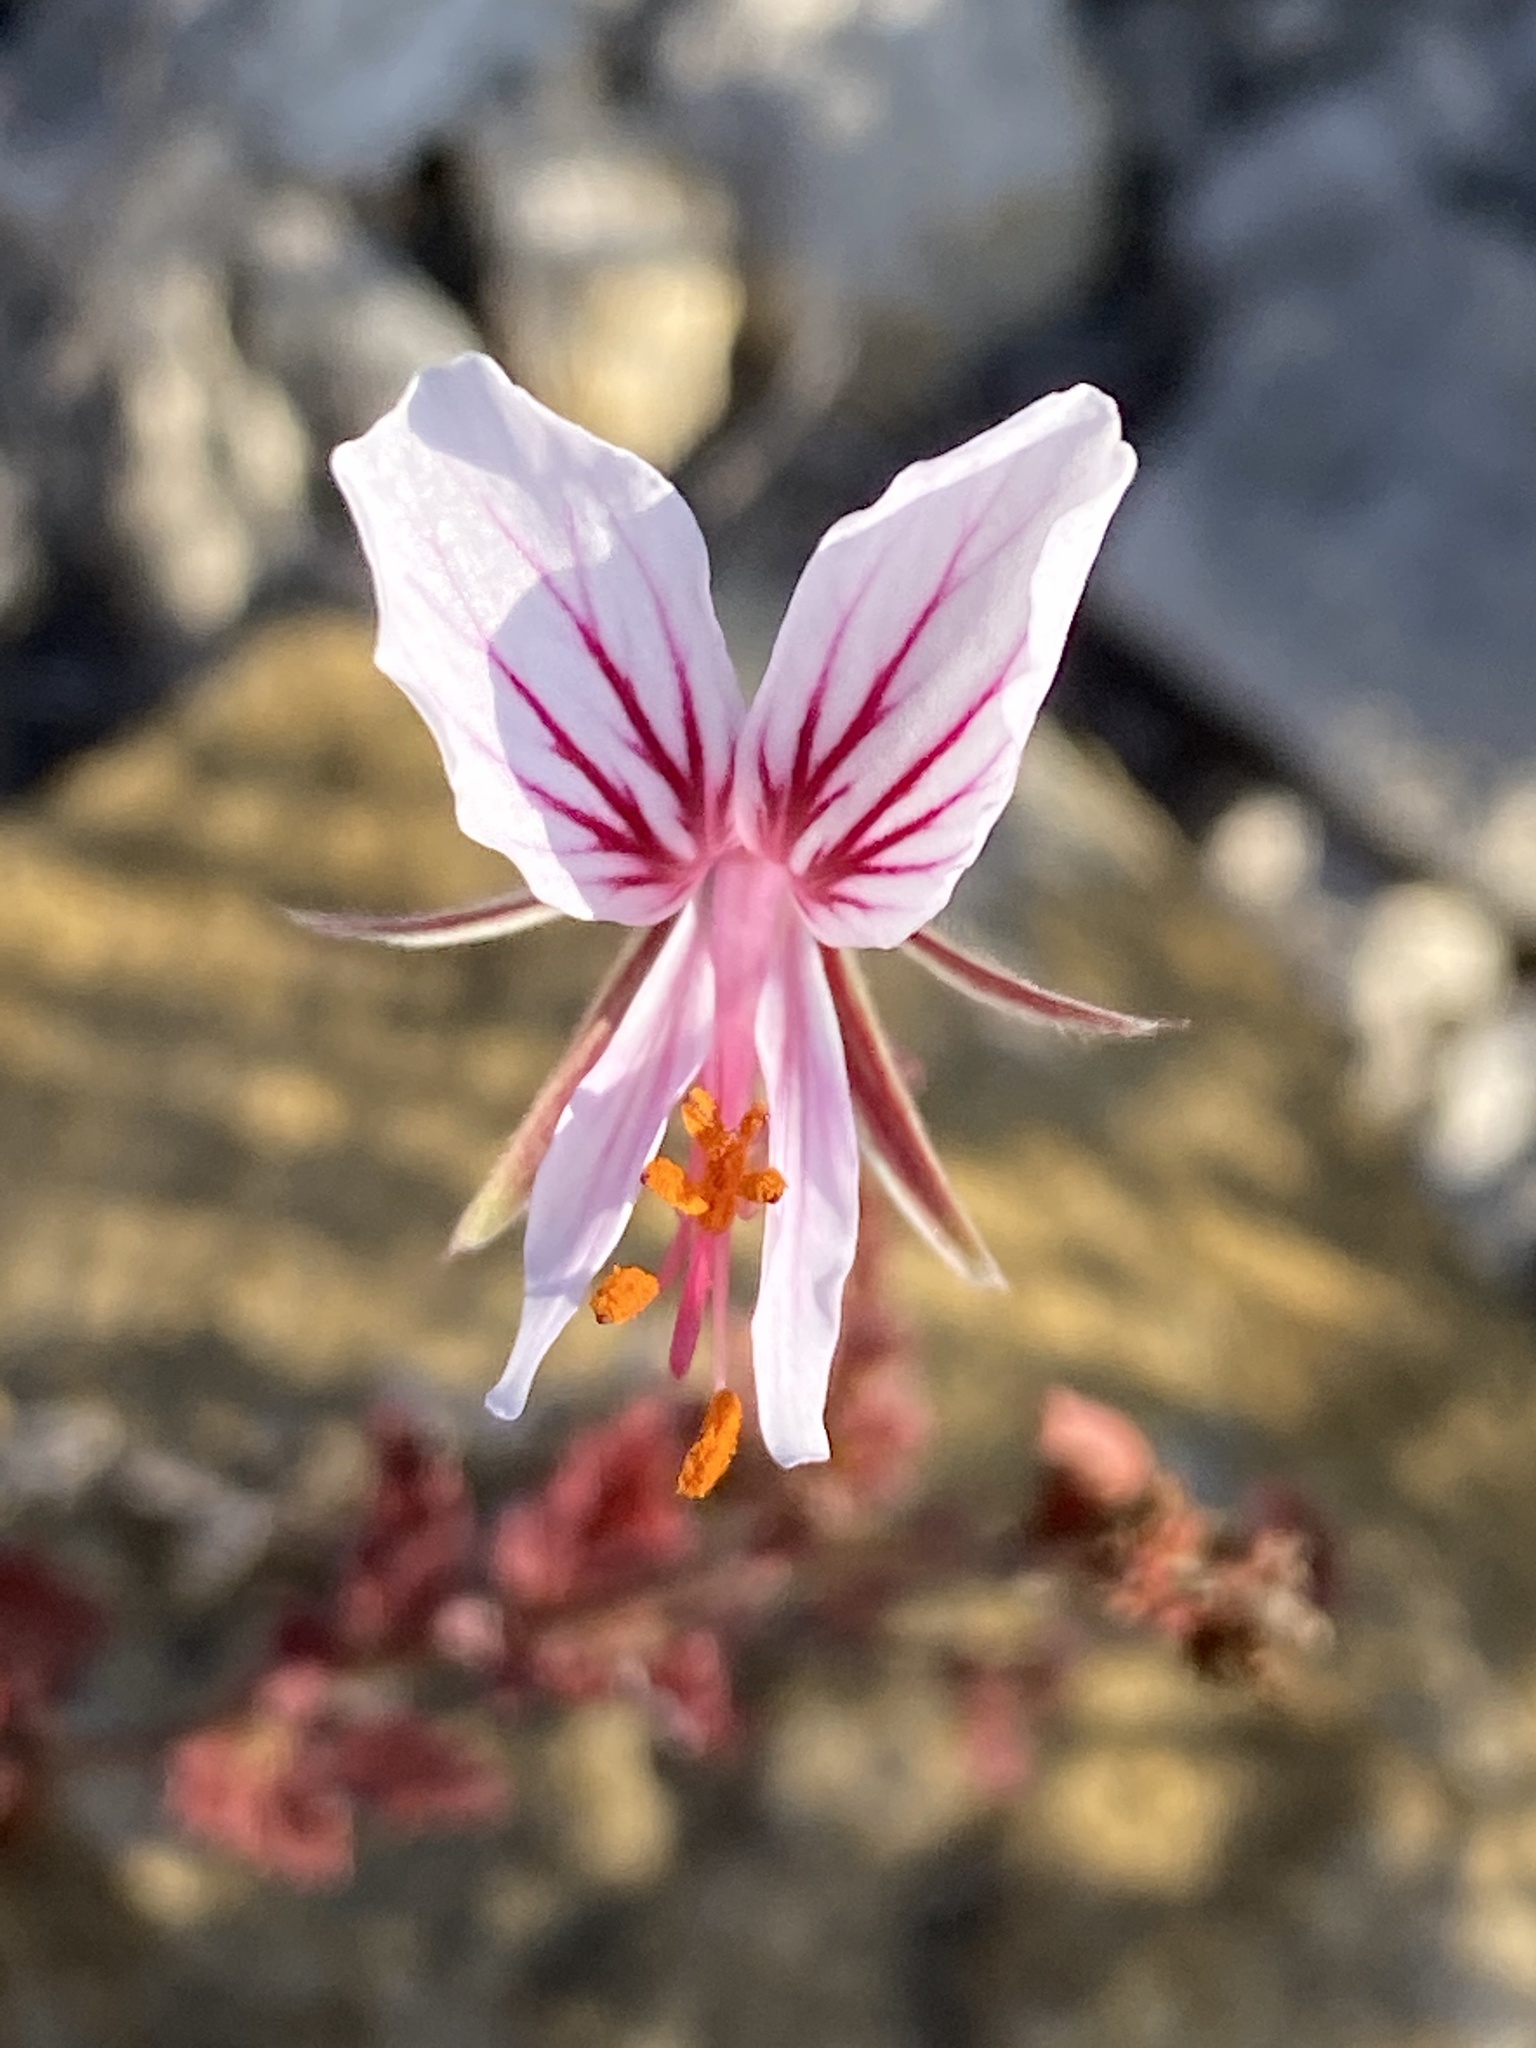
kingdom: Plantae
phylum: Tracheophyta
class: Magnoliopsida
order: Geraniales
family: Geraniaceae
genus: Pelargonium
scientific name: Pelargonium caucalifolium
